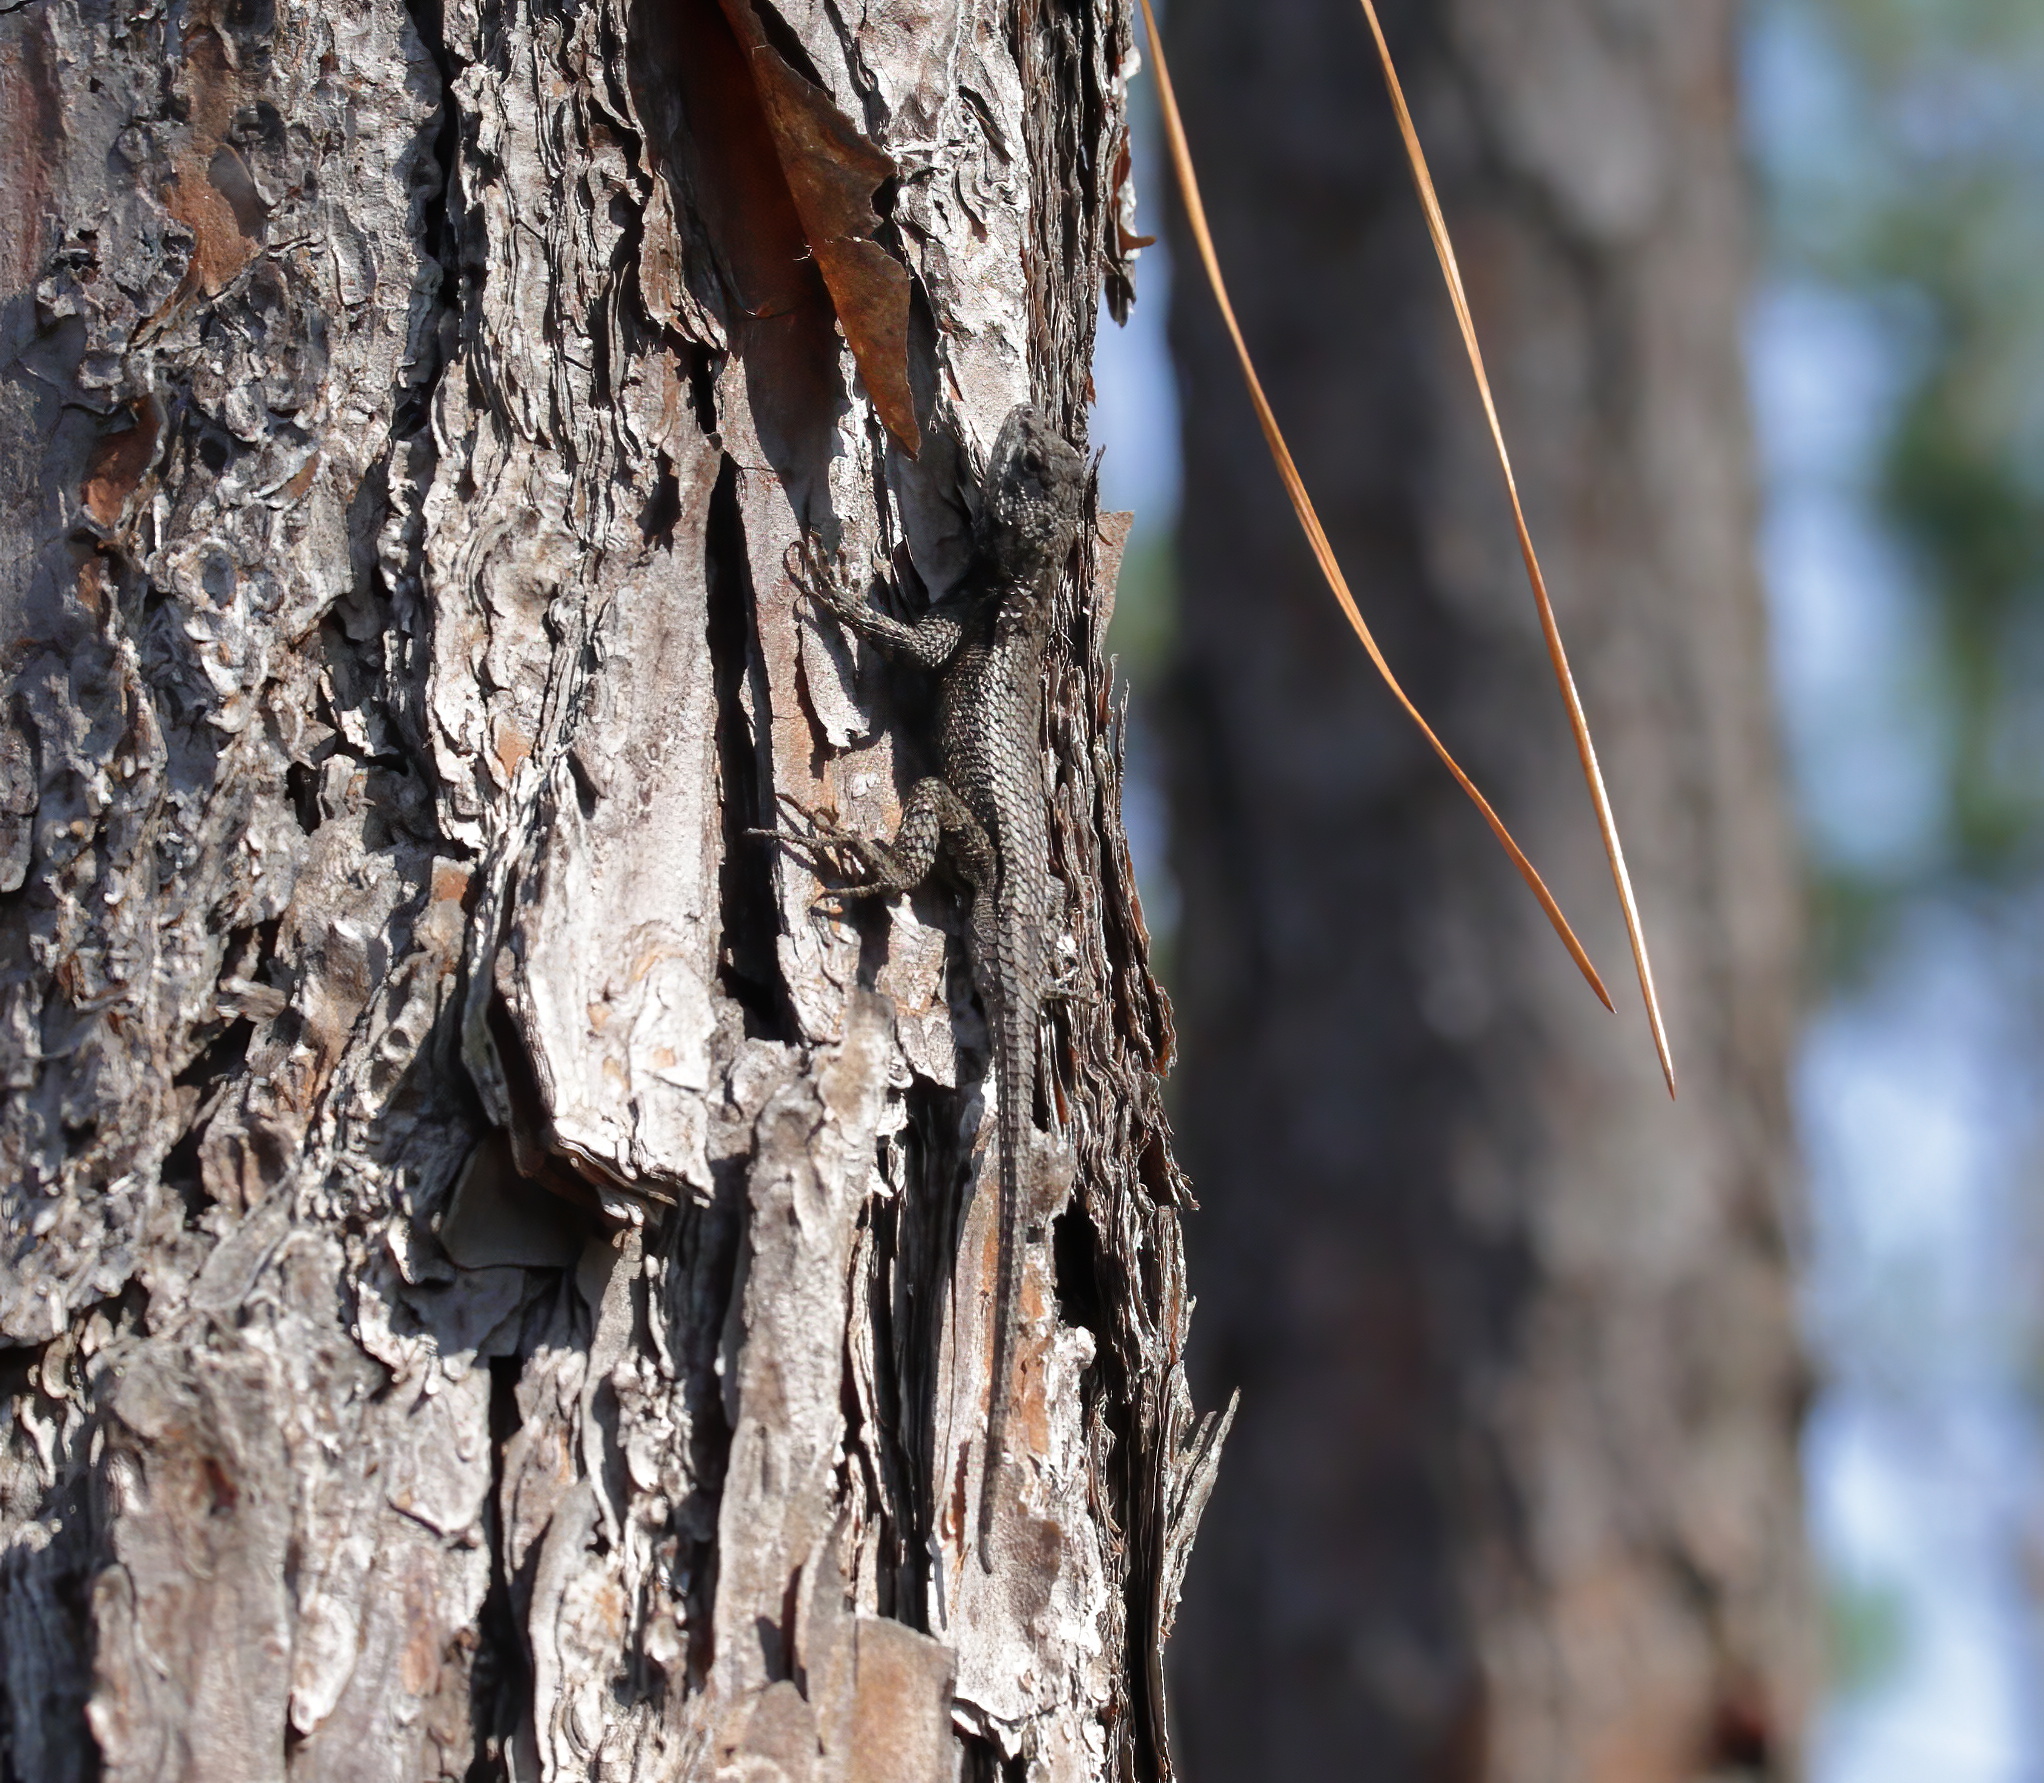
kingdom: Animalia
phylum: Chordata
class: Squamata
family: Phrynosomatidae
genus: Sceloporus
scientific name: Sceloporus undulatus
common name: Eastern fence lizard
